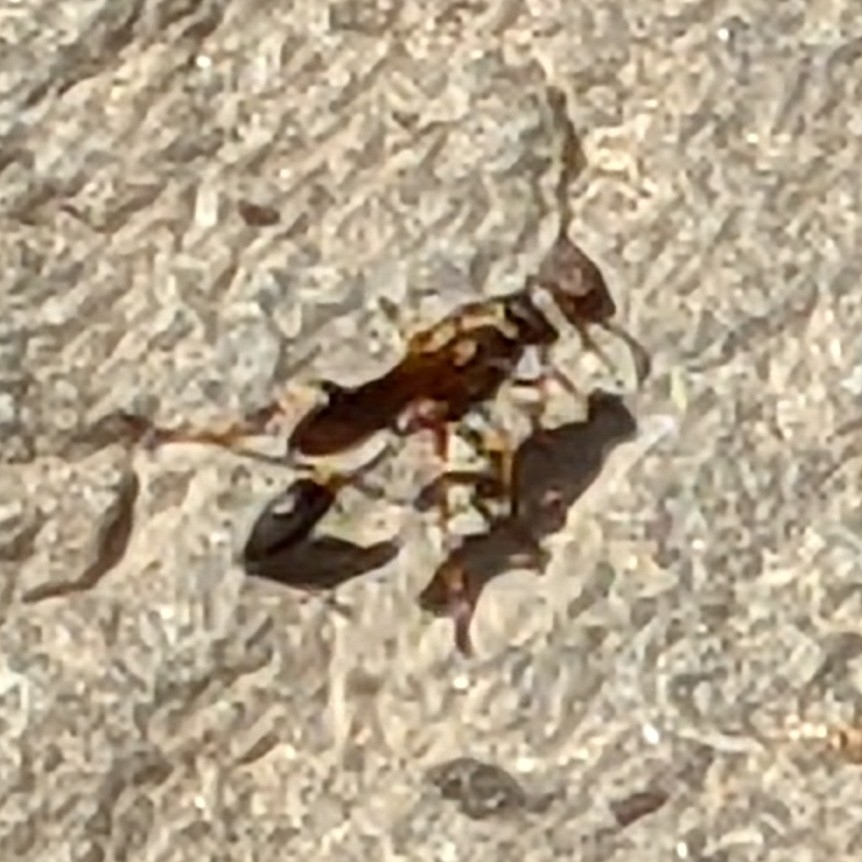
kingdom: Animalia
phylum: Arthropoda
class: Insecta
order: Hymenoptera
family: Sphecidae
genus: Sceliphron
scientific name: Sceliphron caementarium
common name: Mud dauber
